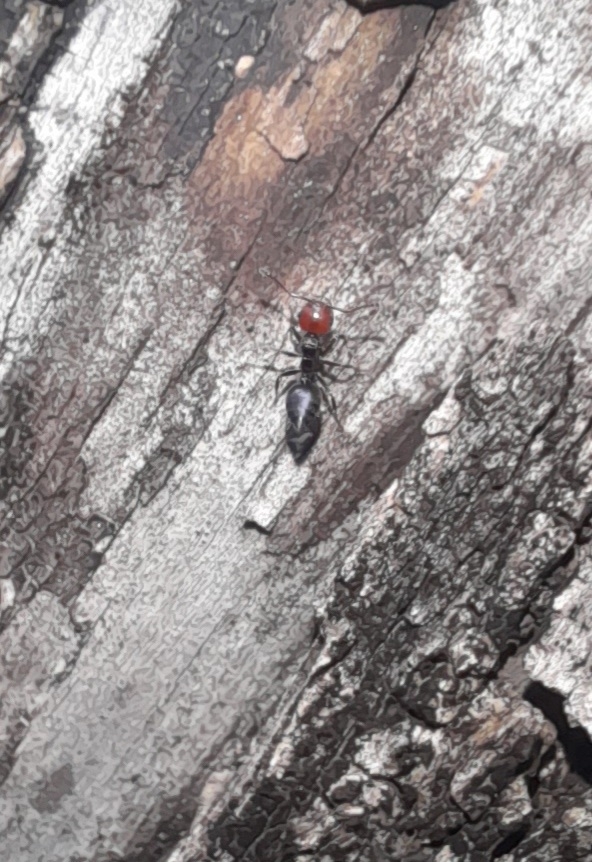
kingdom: Animalia
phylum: Arthropoda
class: Insecta
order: Hymenoptera
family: Formicidae
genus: Crematogaster
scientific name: Crematogaster scutellaris
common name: Fourmi du liège
